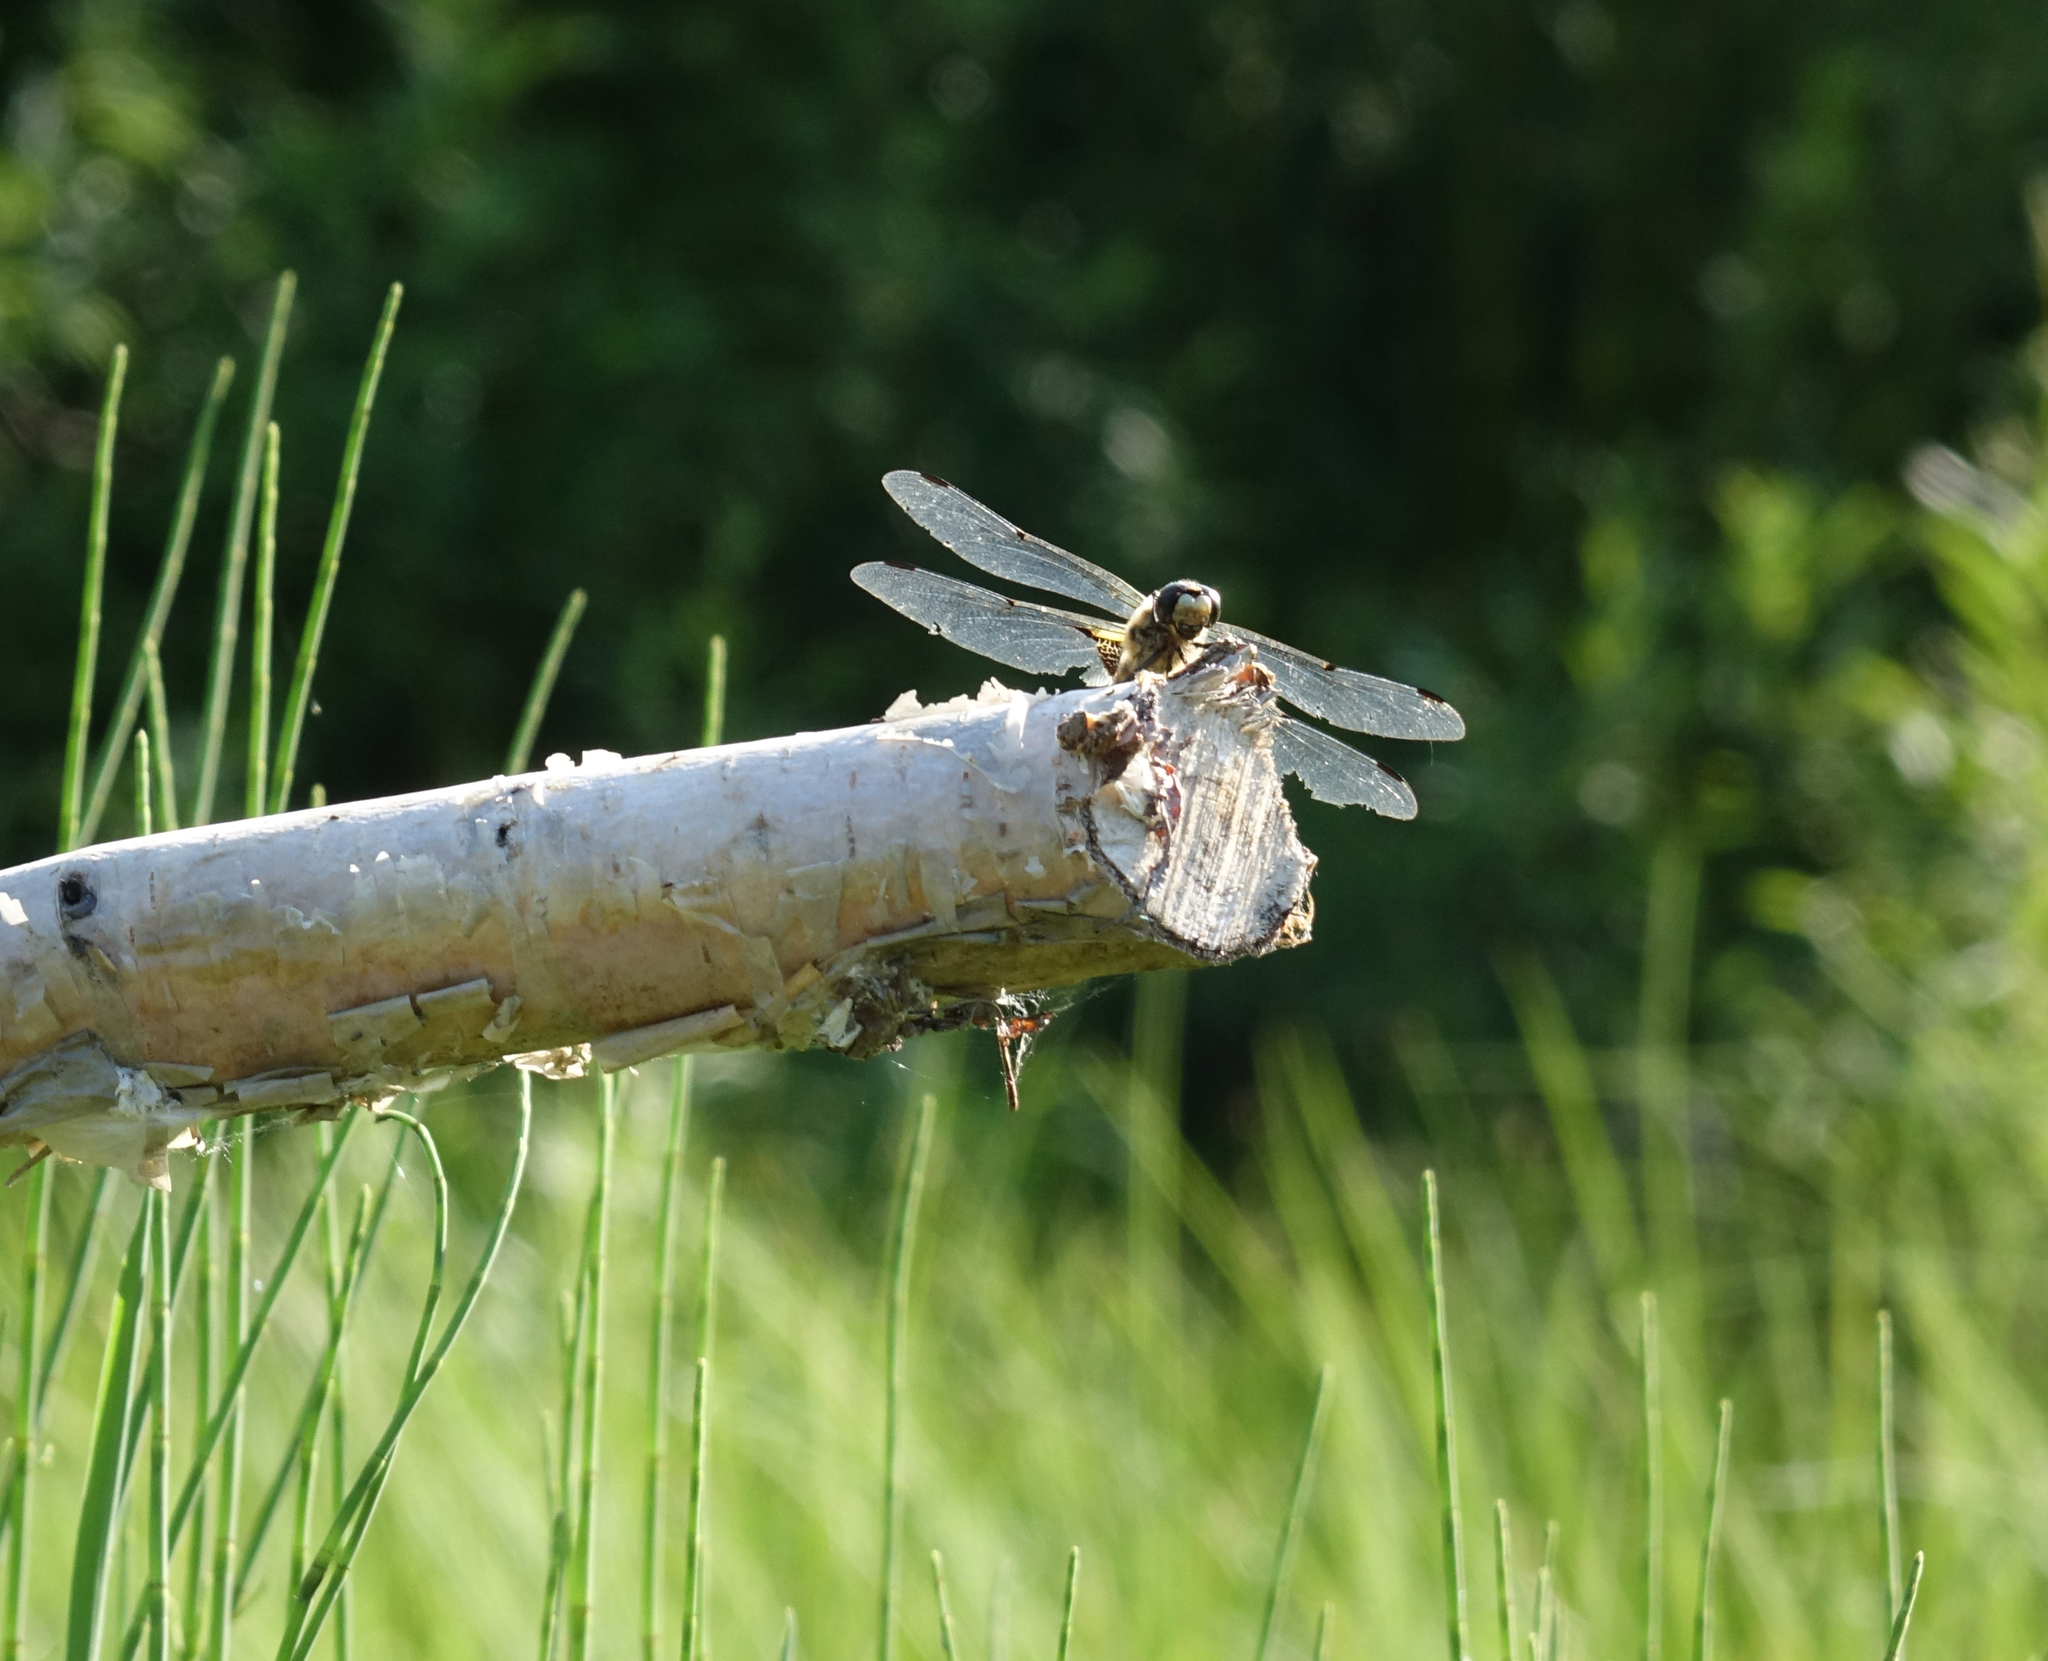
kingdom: Animalia
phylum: Arthropoda
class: Insecta
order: Odonata
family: Libellulidae
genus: Libellula
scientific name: Libellula quadrimaculata
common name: Four-spotted chaser
